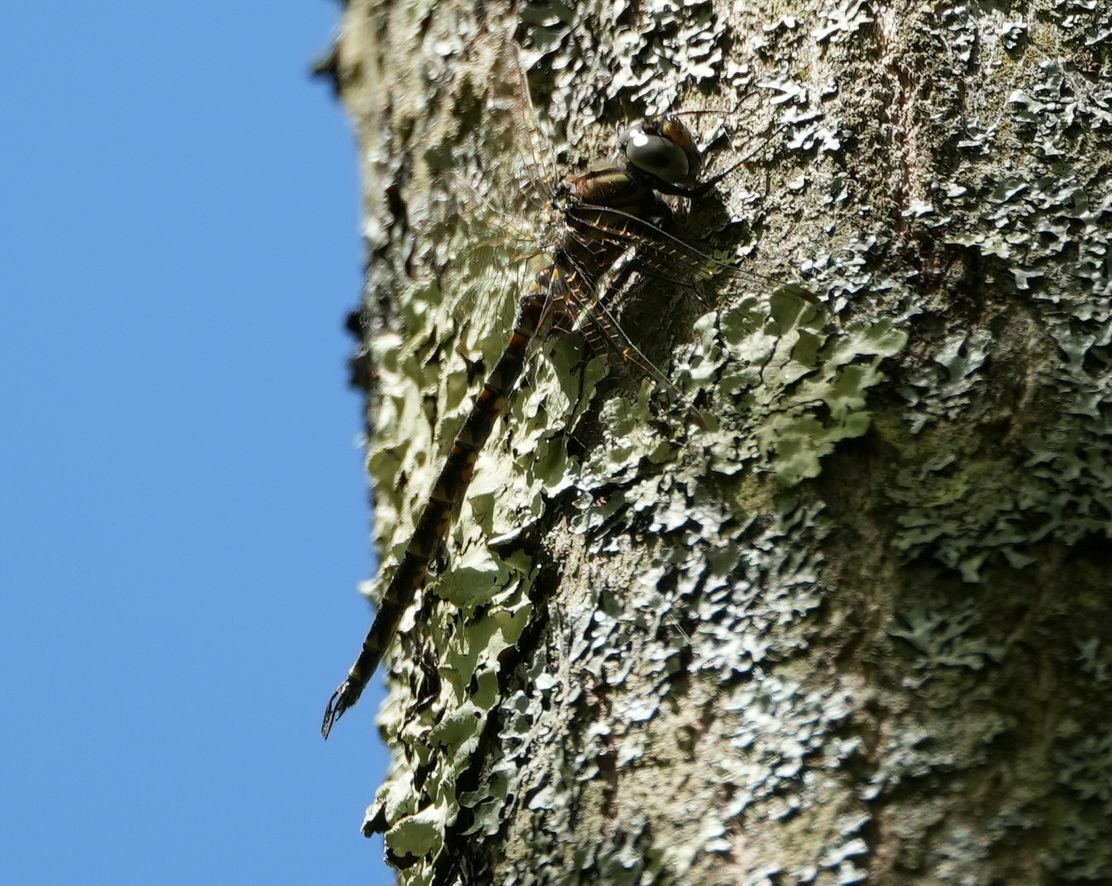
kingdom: Animalia
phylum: Arthropoda
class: Insecta
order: Odonata
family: Aeshnidae
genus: Gomphaeschna
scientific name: Gomphaeschna furcillata
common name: Harlequin darner
